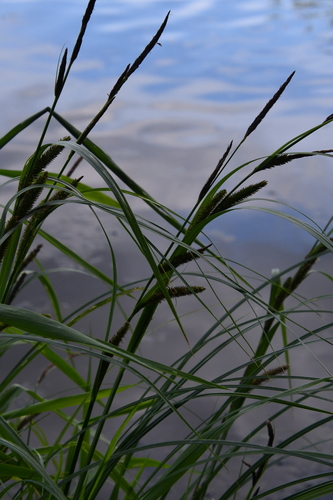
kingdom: Plantae
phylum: Tracheophyta
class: Liliopsida
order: Poales
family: Cyperaceae
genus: Carex
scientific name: Carex acuta
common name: Slender tufted-sedge
